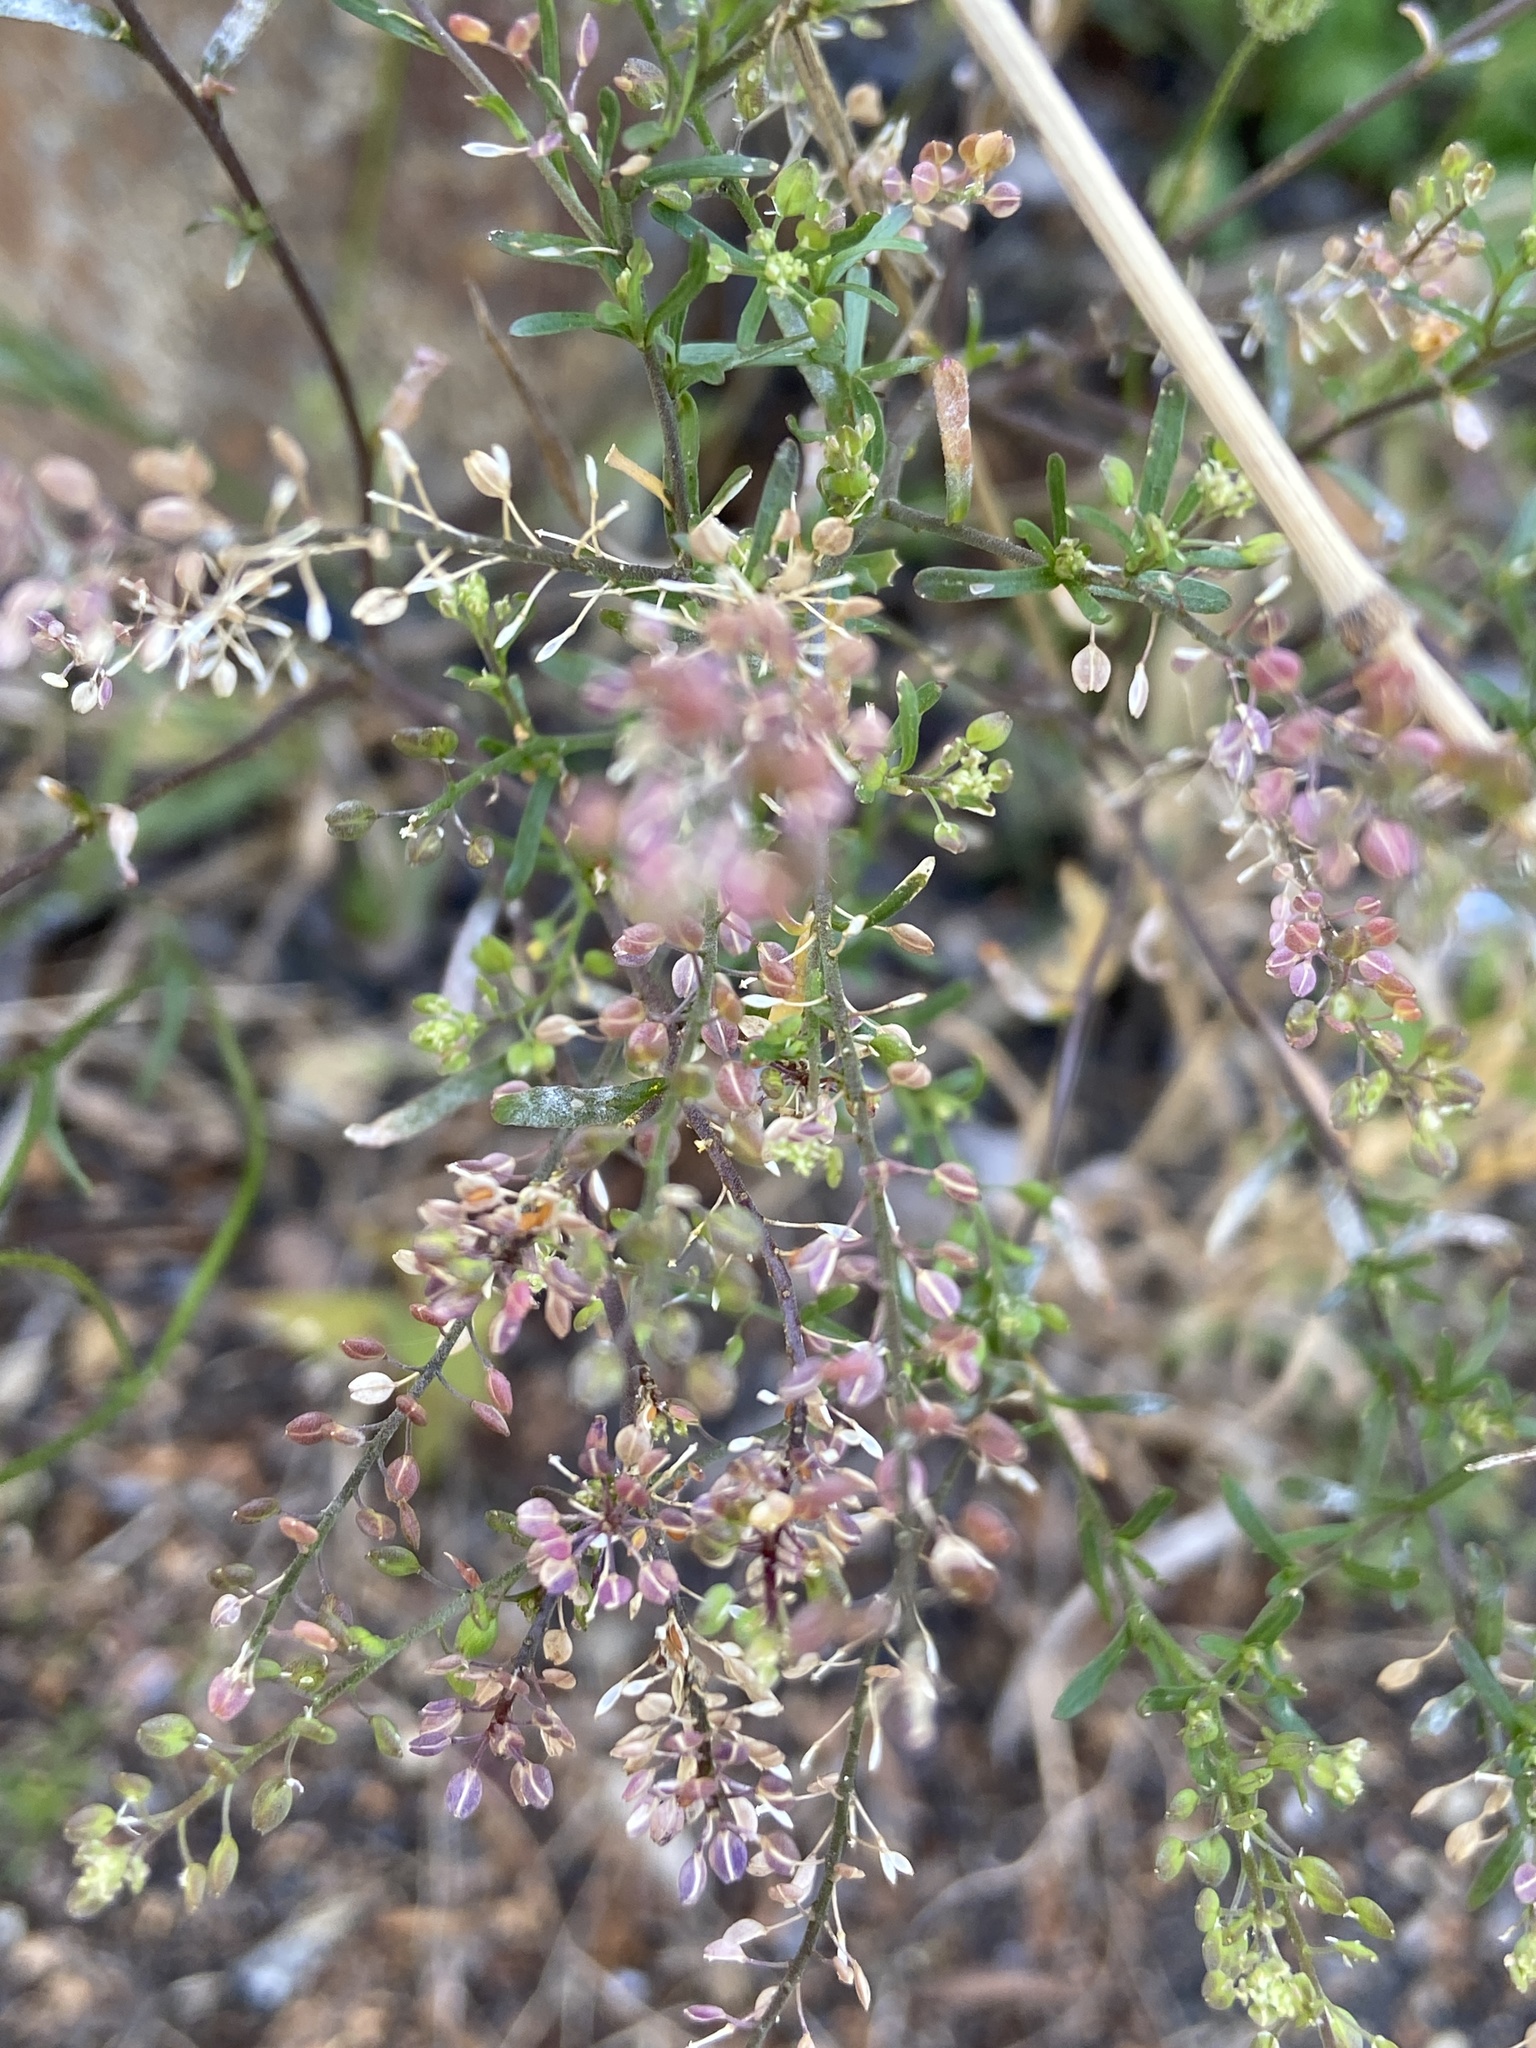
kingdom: Plantae
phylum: Tracheophyta
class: Magnoliopsida
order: Brassicales
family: Brassicaceae
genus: Lepidium
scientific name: Lepidium ruderale
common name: Narrow-leaved pepperwort
